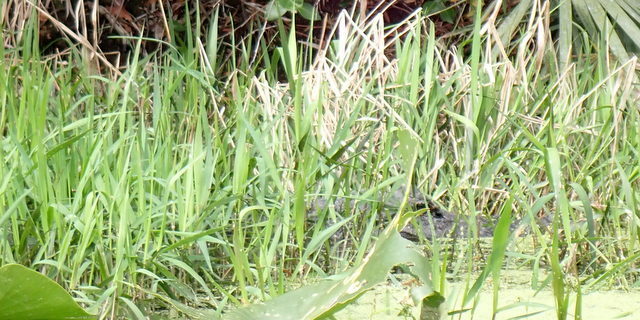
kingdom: Animalia
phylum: Chordata
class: Crocodylia
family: Alligatoridae
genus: Alligator
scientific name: Alligator mississippiensis
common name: American alligator
